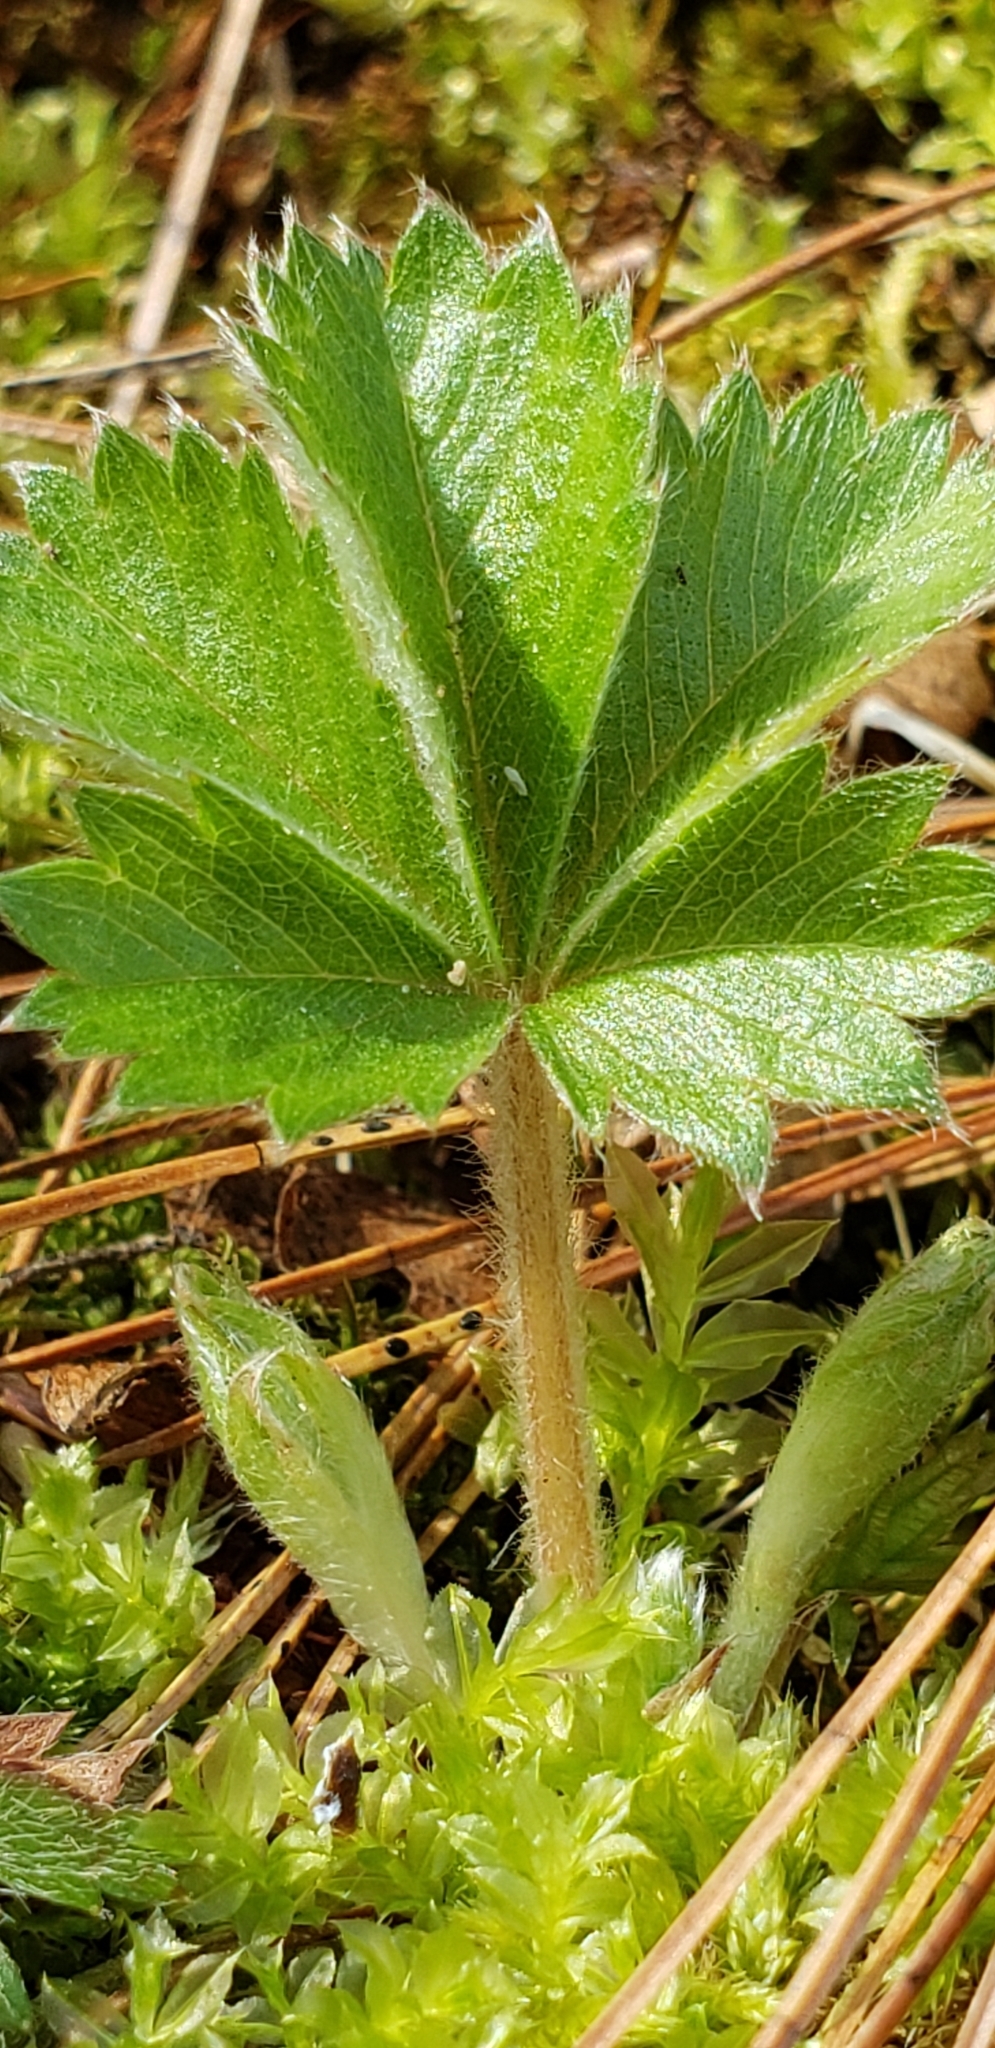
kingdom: Plantae
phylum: Tracheophyta
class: Magnoliopsida
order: Rosales
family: Rosaceae
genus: Potentilla
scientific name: Potentilla canadensis
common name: Canada cinquefoil
